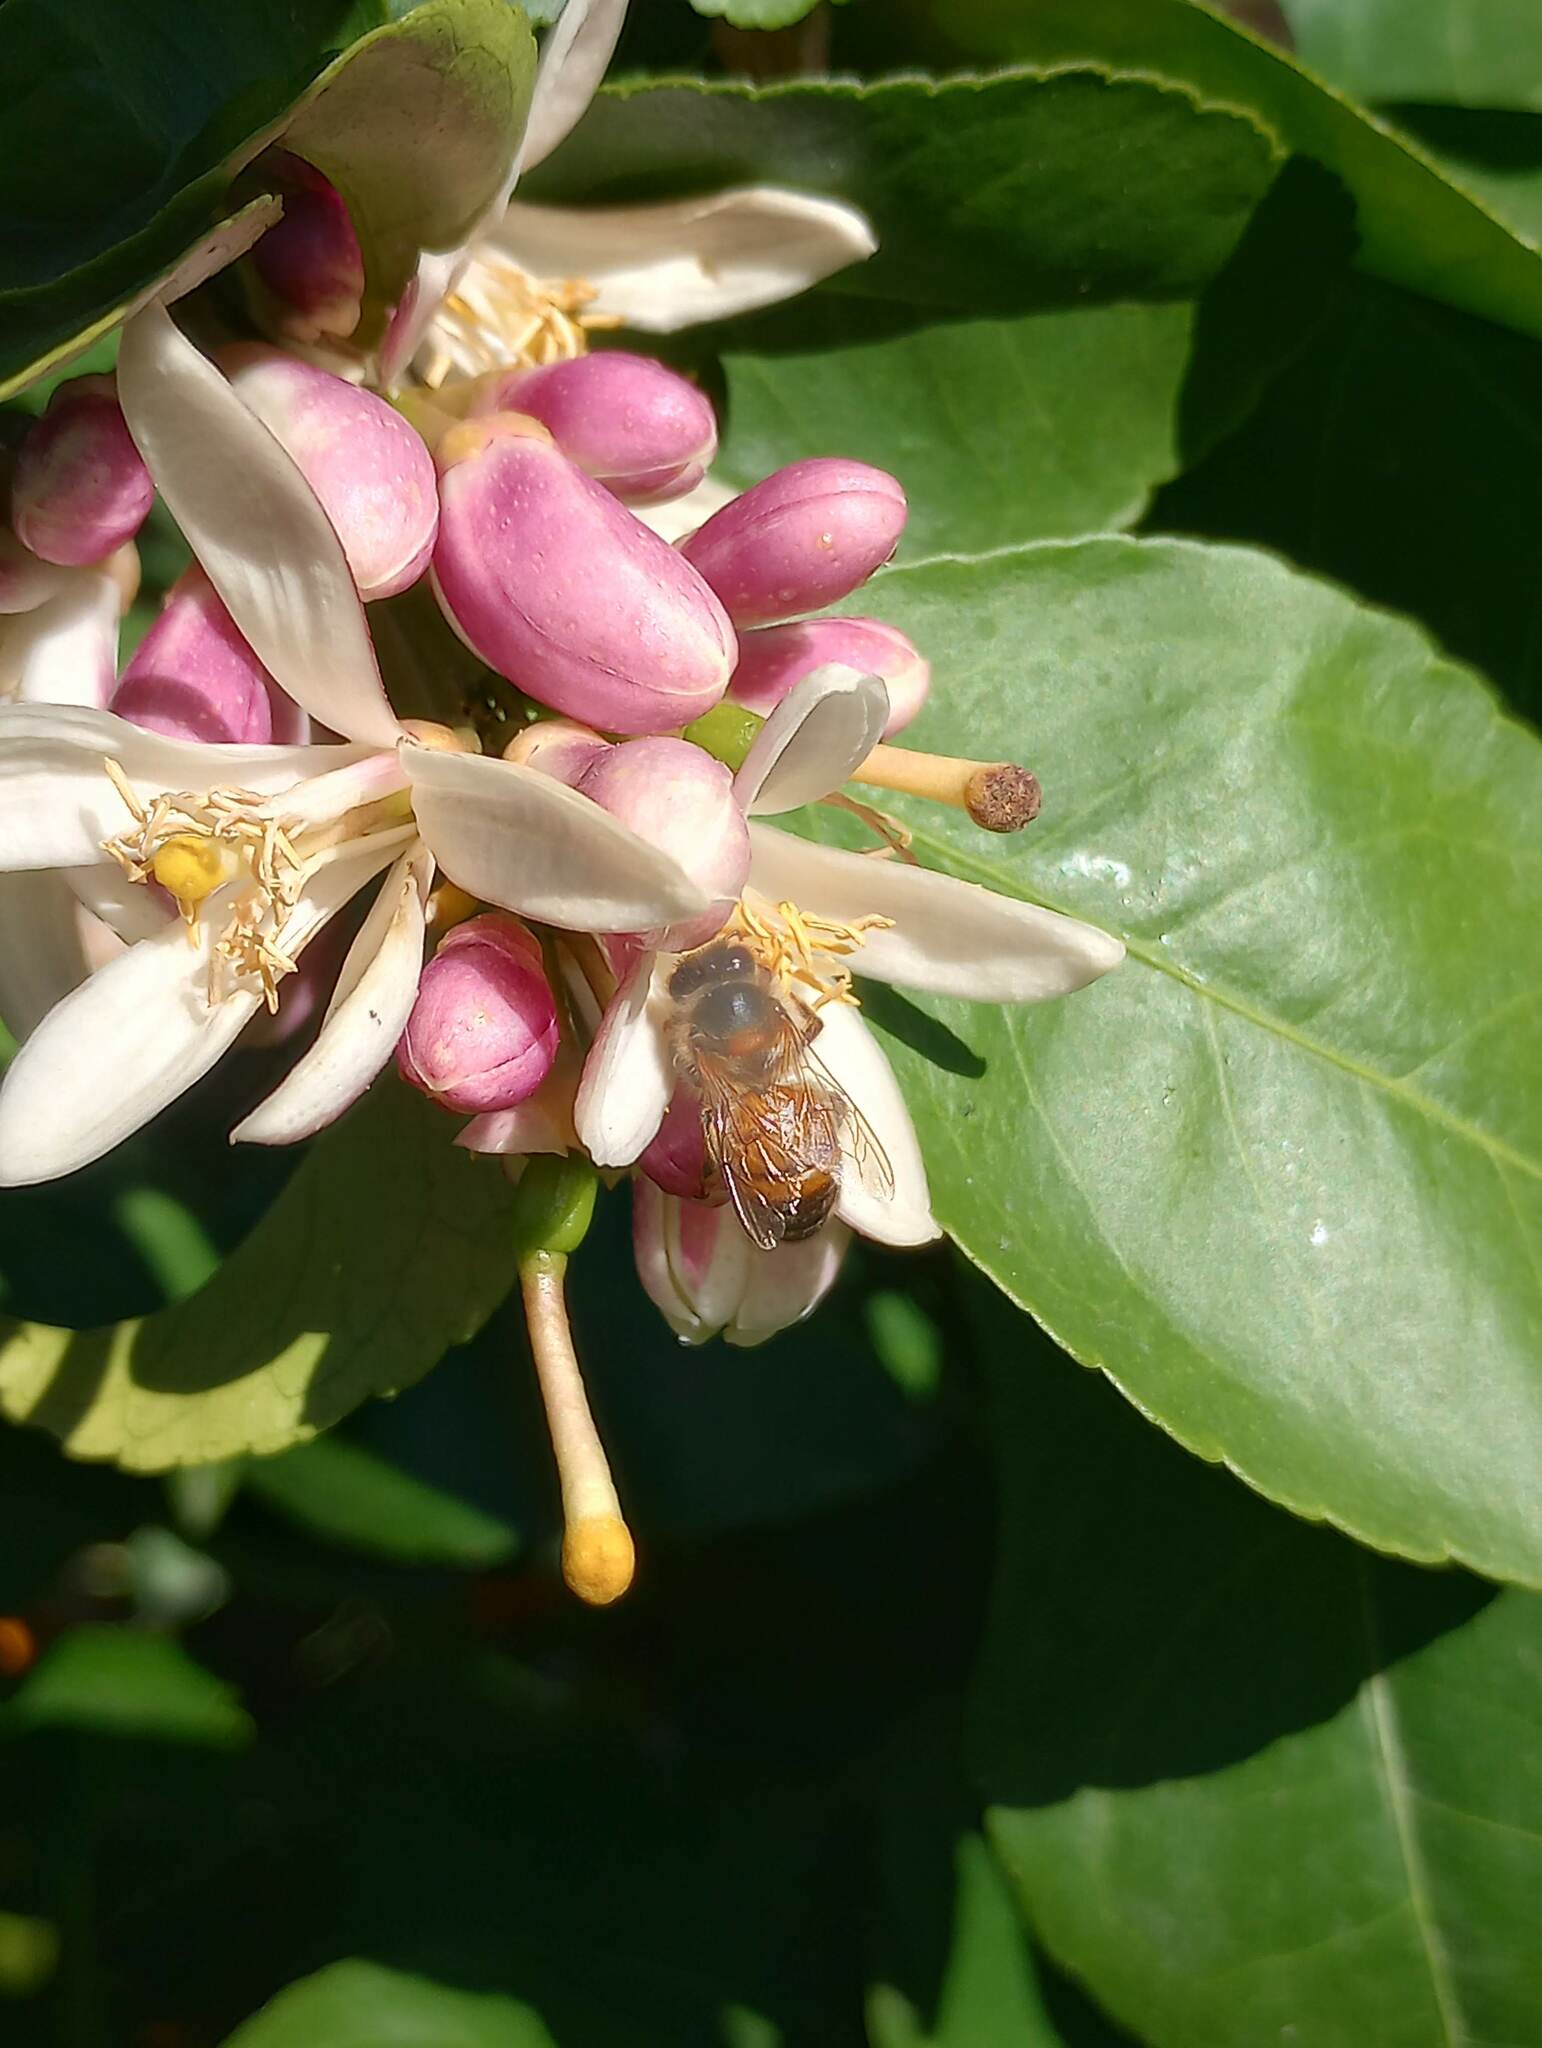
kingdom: Animalia
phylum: Arthropoda
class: Insecta
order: Hymenoptera
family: Apidae
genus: Apis
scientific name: Apis mellifera
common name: Honey bee
